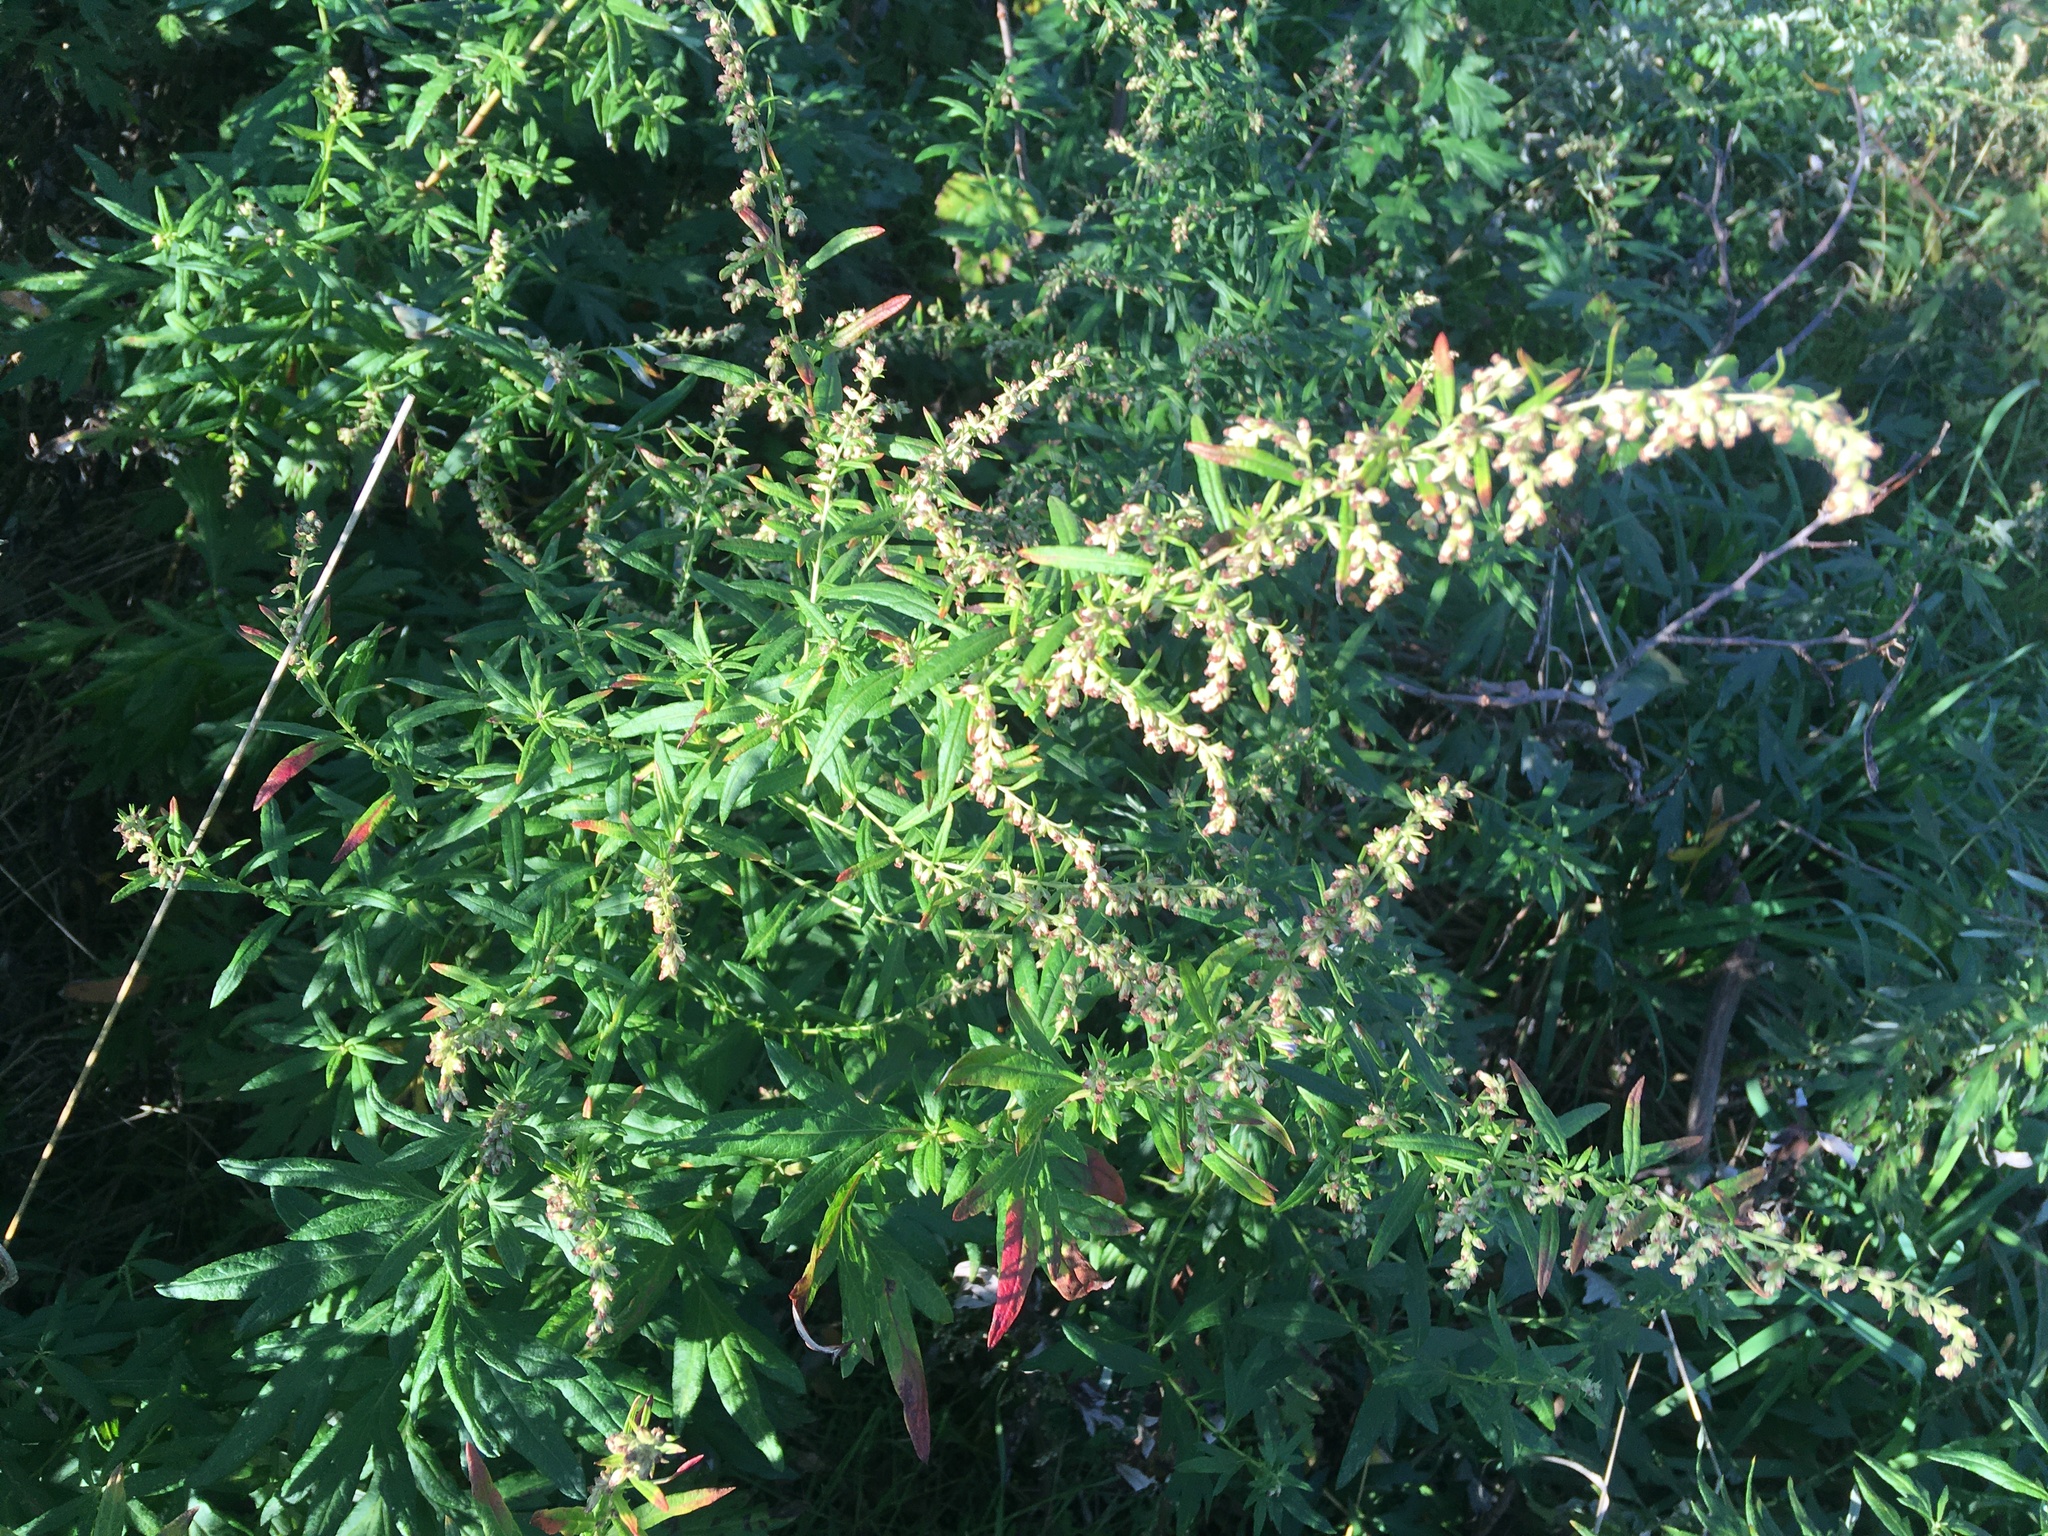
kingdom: Plantae
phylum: Tracheophyta
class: Magnoliopsida
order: Asterales
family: Asteraceae
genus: Artemisia
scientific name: Artemisia vulgaris
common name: Mugwort
